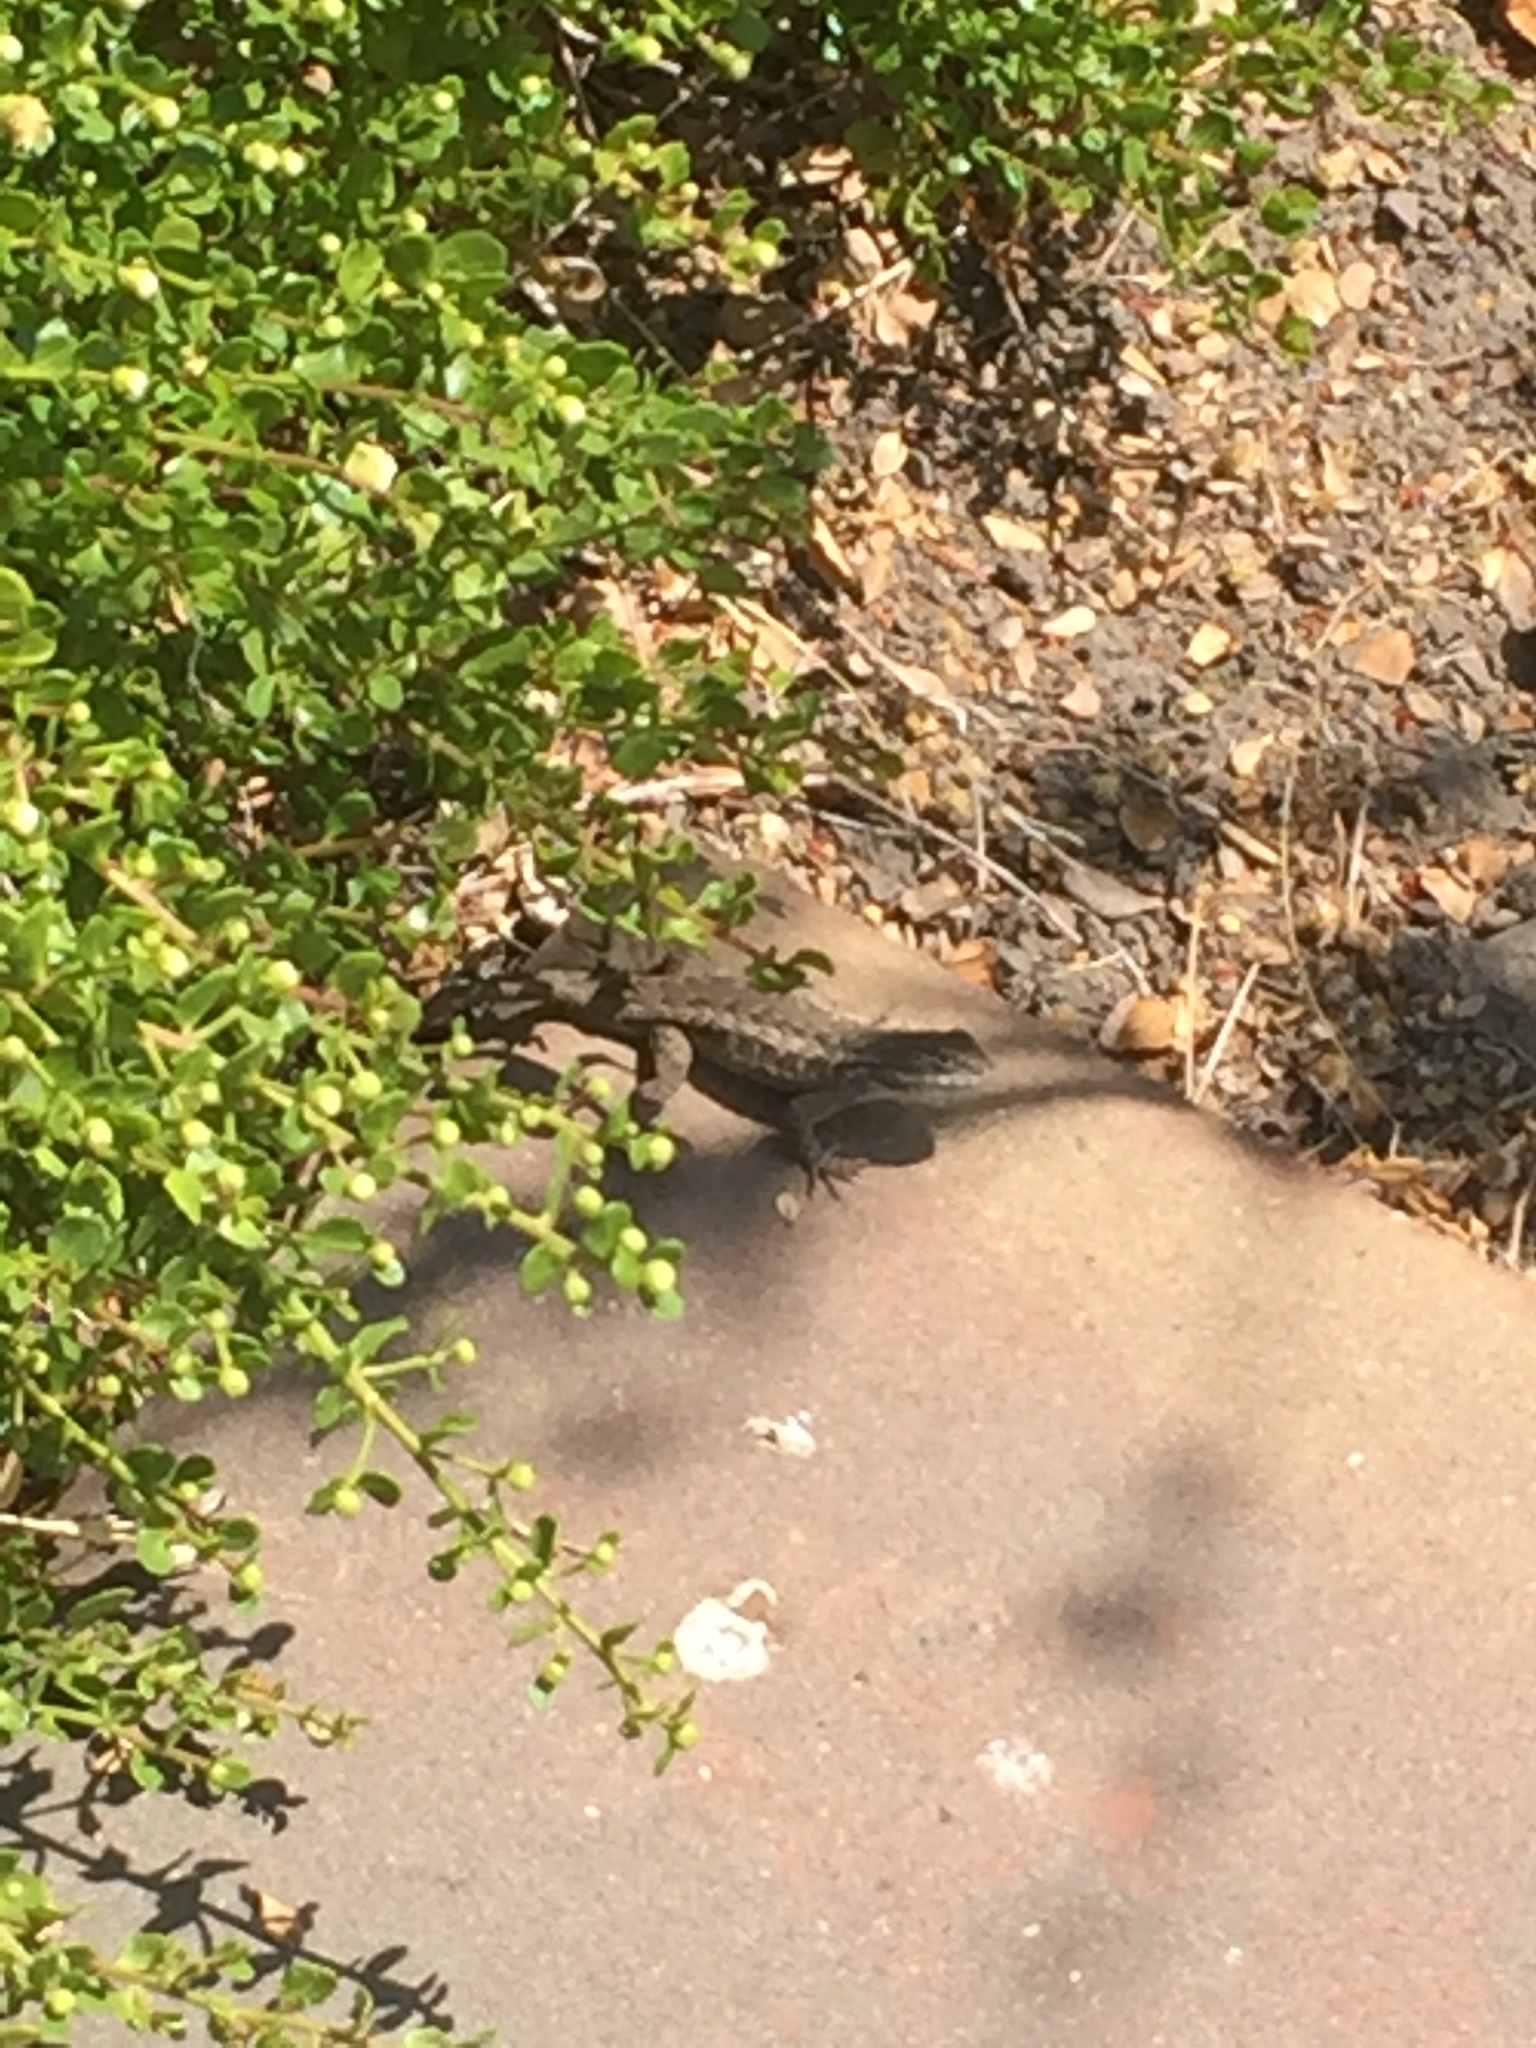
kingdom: Animalia
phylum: Chordata
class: Squamata
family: Phrynosomatidae
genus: Sceloporus
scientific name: Sceloporus occidentalis
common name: Western fence lizard
